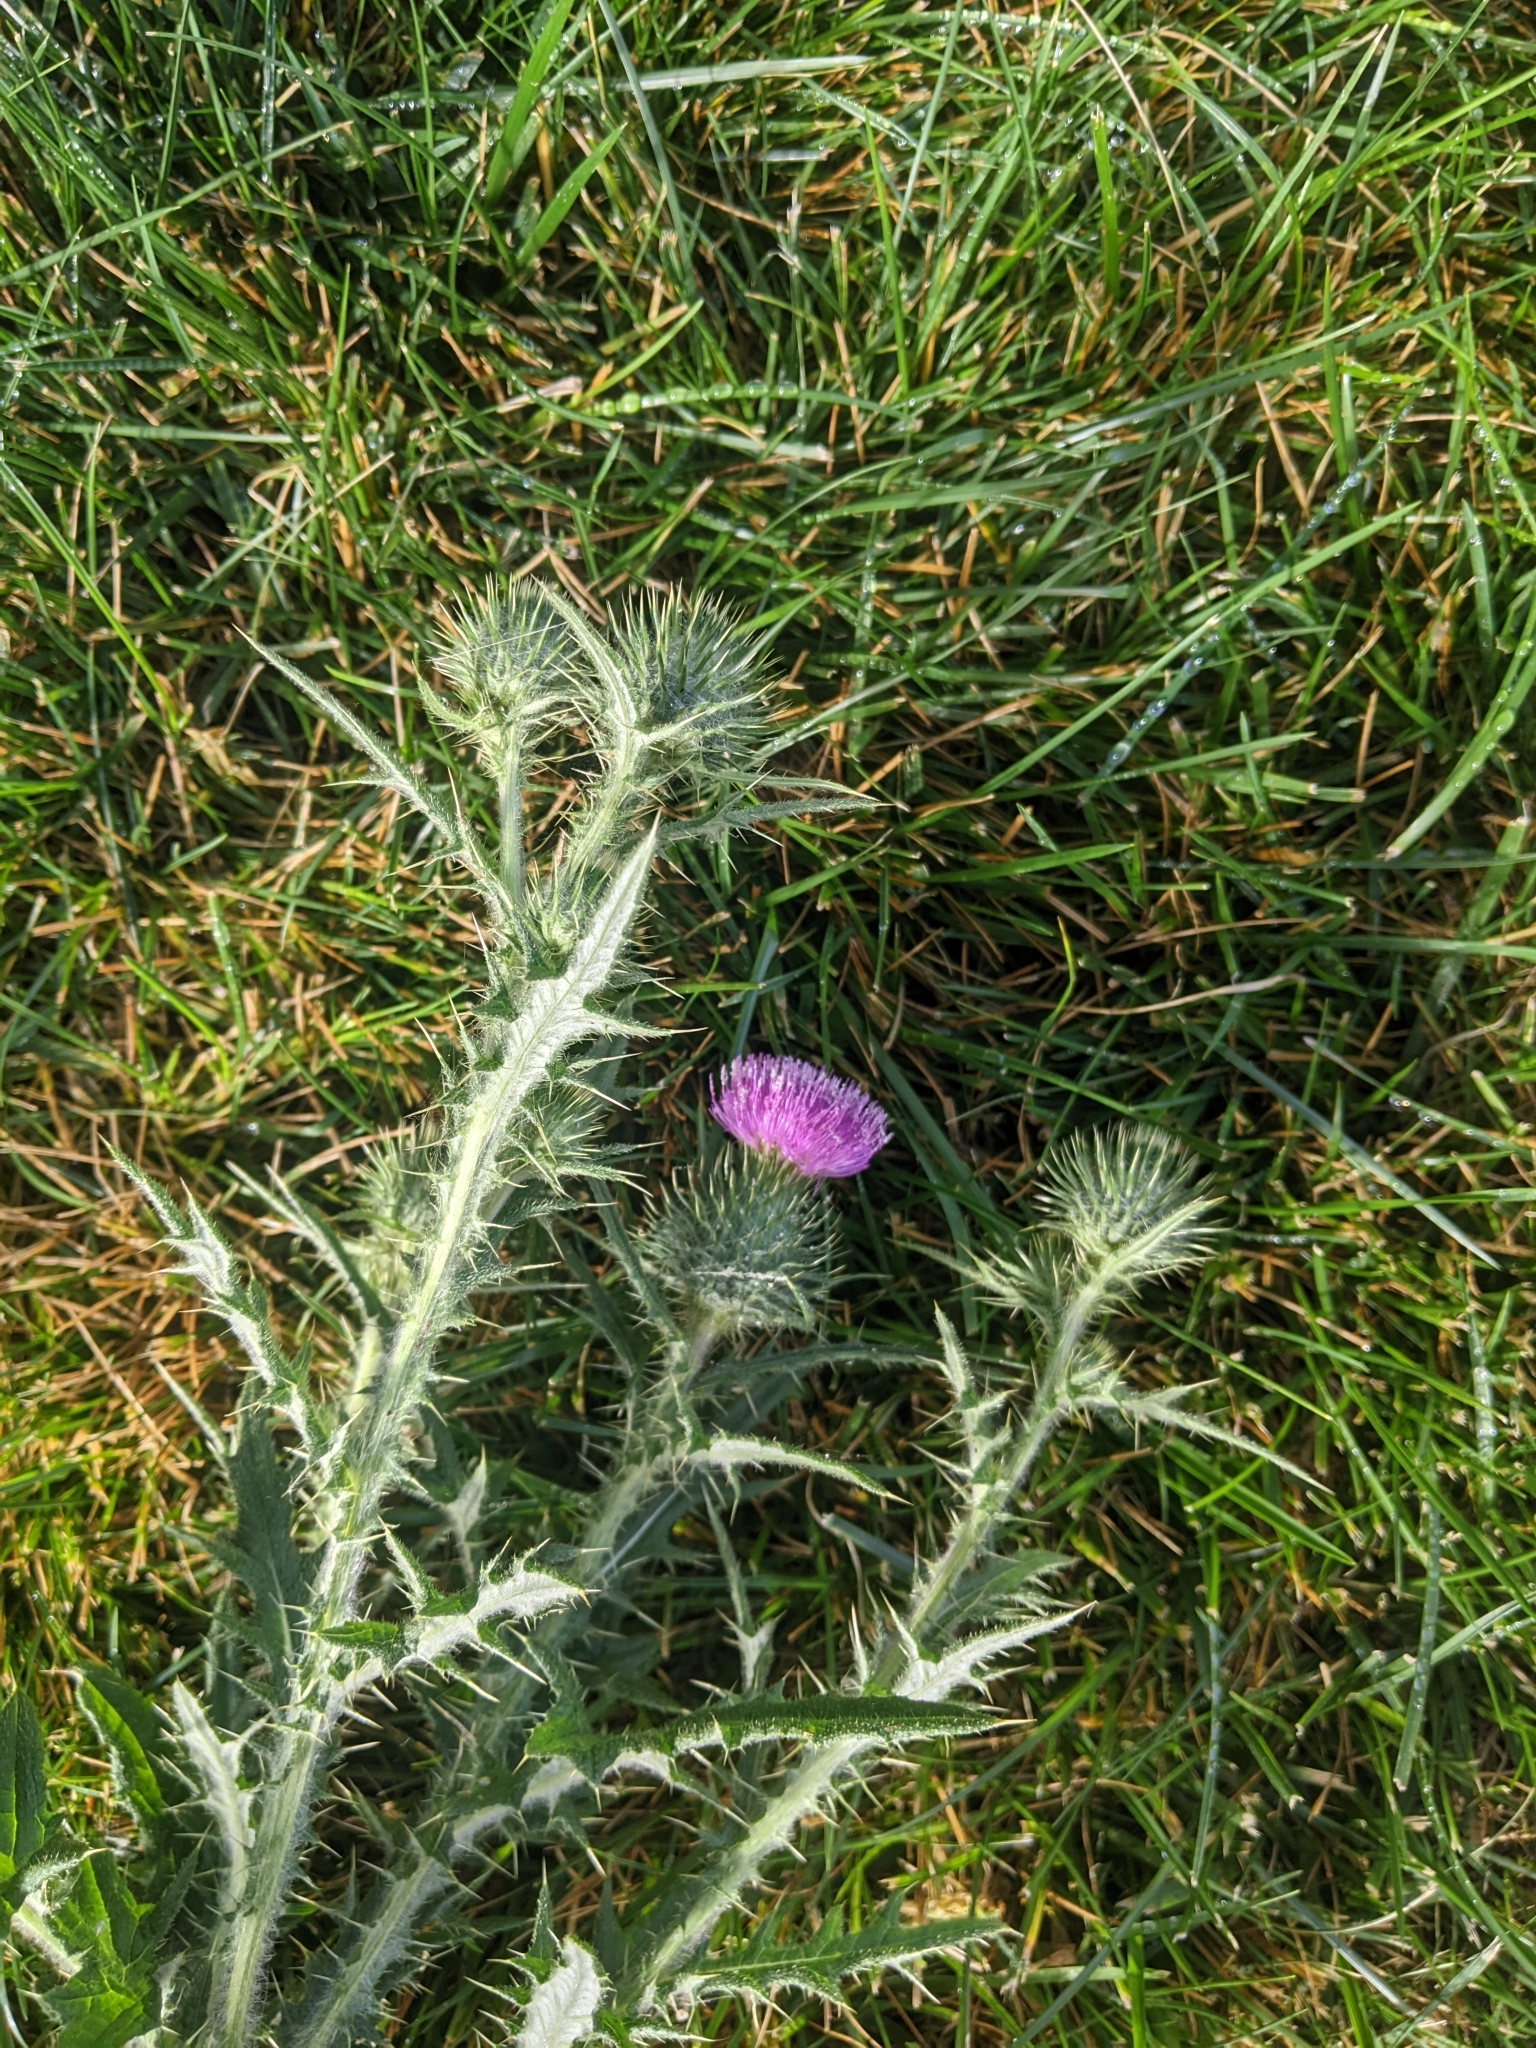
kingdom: Plantae
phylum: Tracheophyta
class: Magnoliopsida
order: Asterales
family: Asteraceae
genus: Cirsium
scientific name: Cirsium vulgare
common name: Bull thistle
